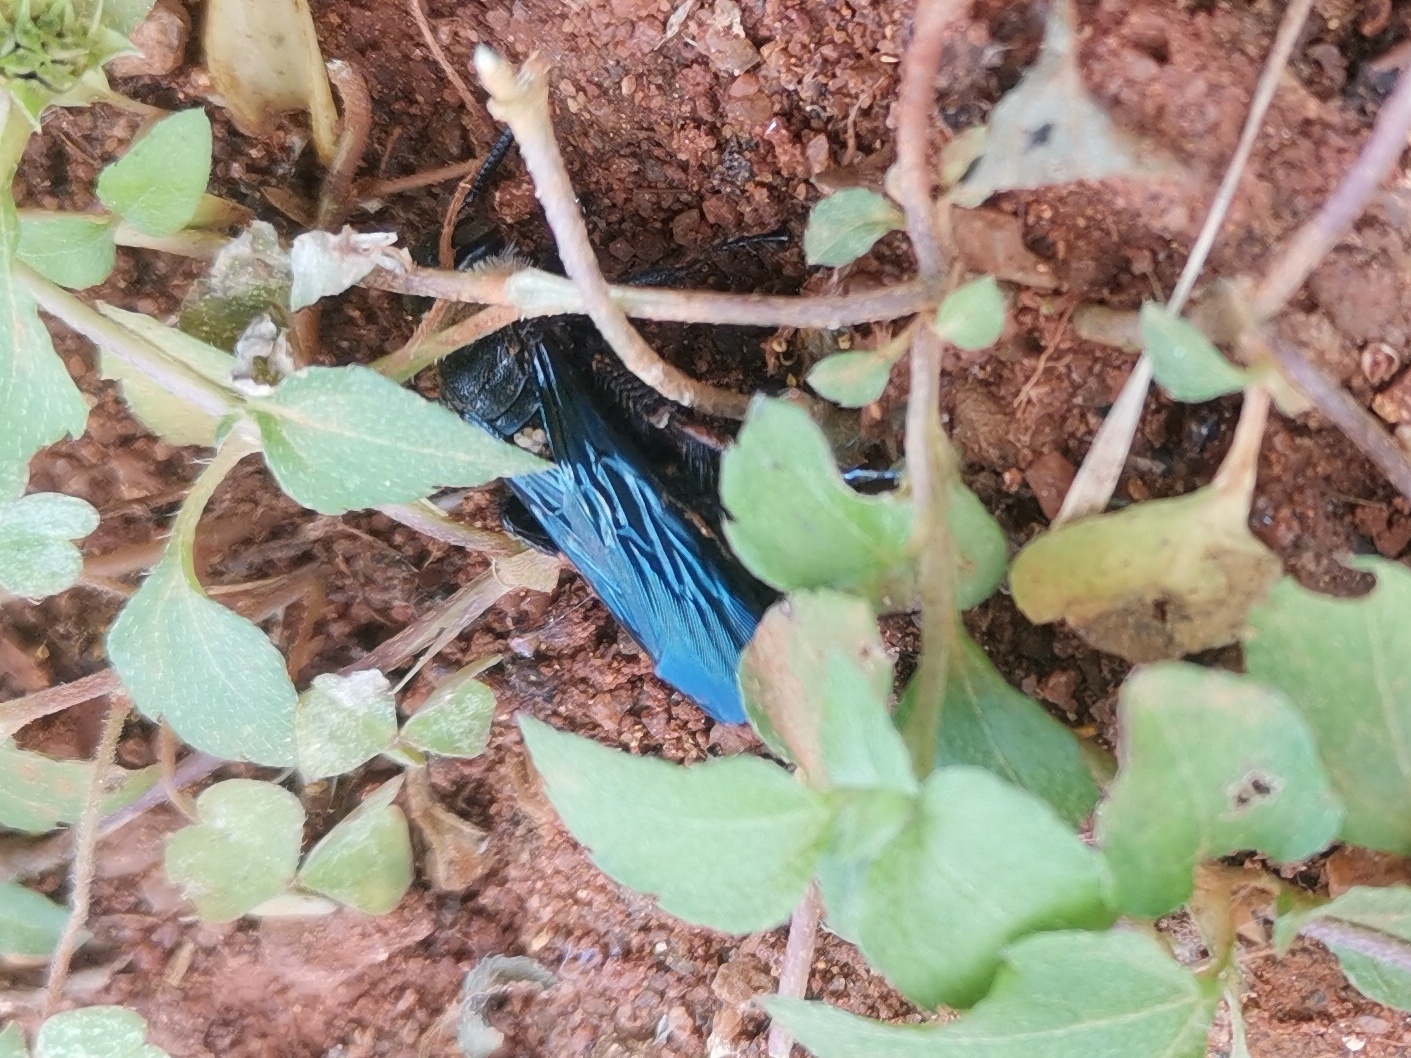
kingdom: Animalia
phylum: Arthropoda
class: Insecta
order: Hymenoptera
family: Scoliidae
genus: Campsomeriella
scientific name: Campsomeriella collaris
